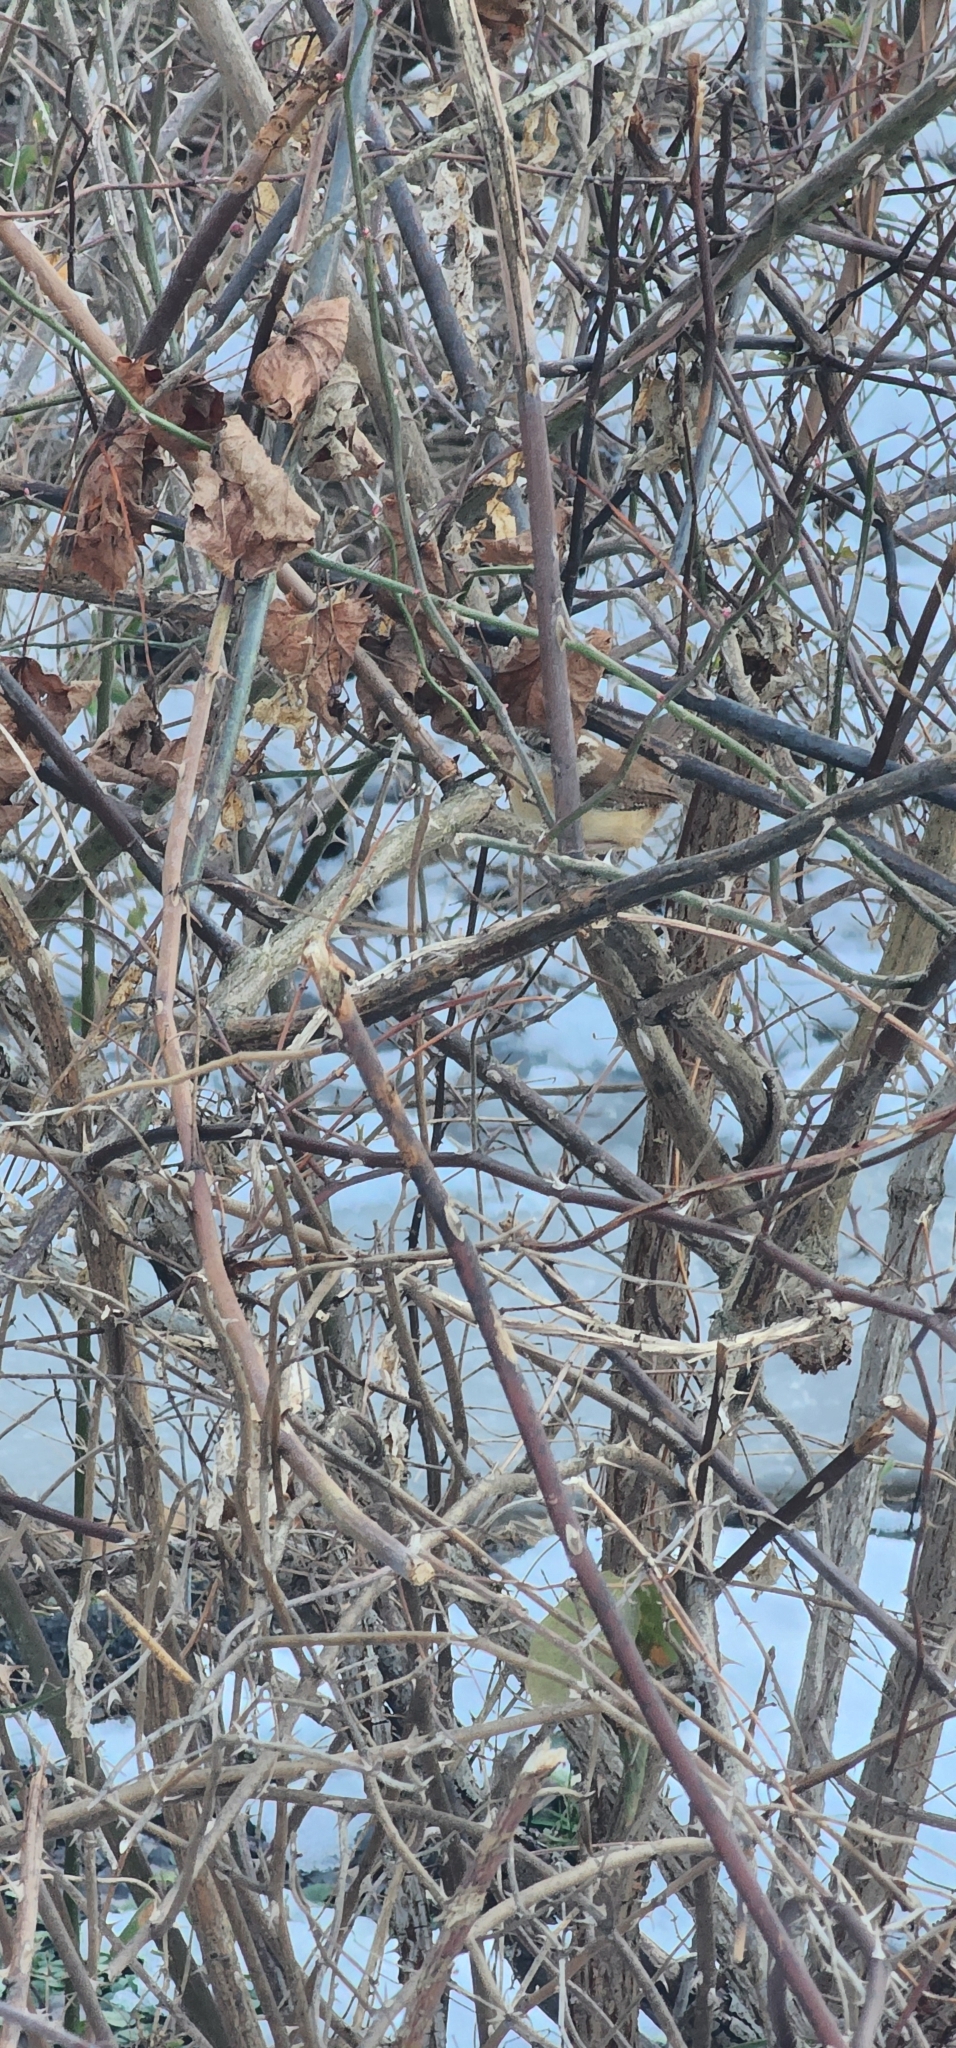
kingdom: Animalia
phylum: Chordata
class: Aves
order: Passeriformes
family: Troglodytidae
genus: Thryothorus
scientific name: Thryothorus ludovicianus
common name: Carolina wren
